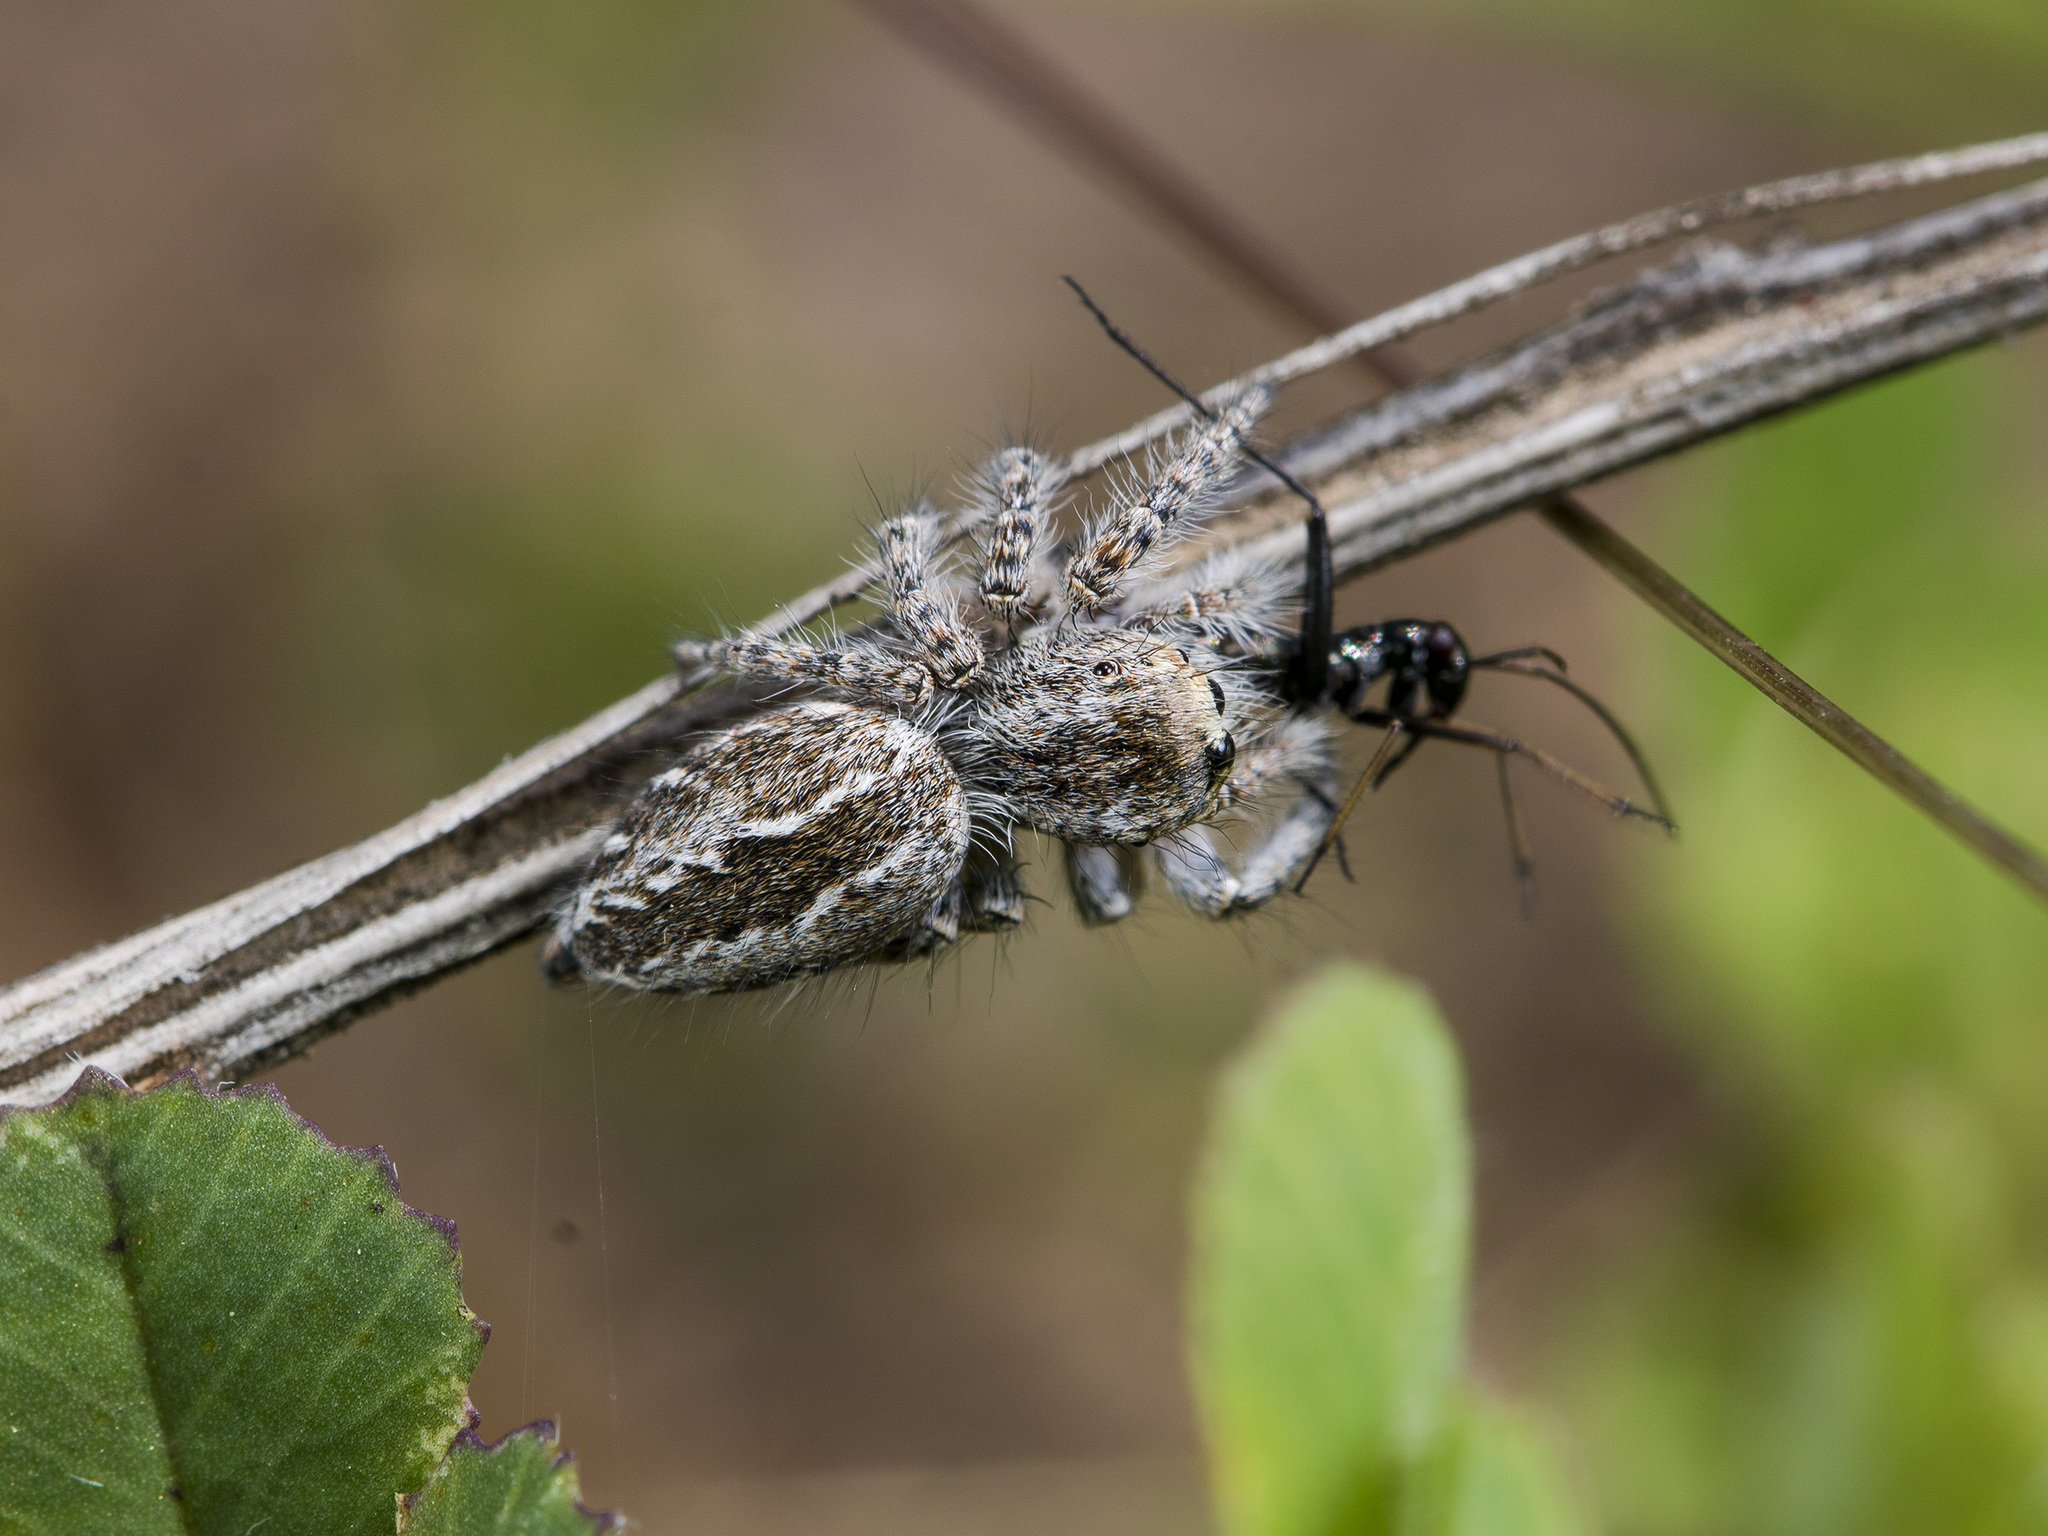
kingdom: Animalia
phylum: Arthropoda
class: Arachnida
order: Araneae
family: Salticidae
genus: Mogrus
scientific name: Mogrus larisae
